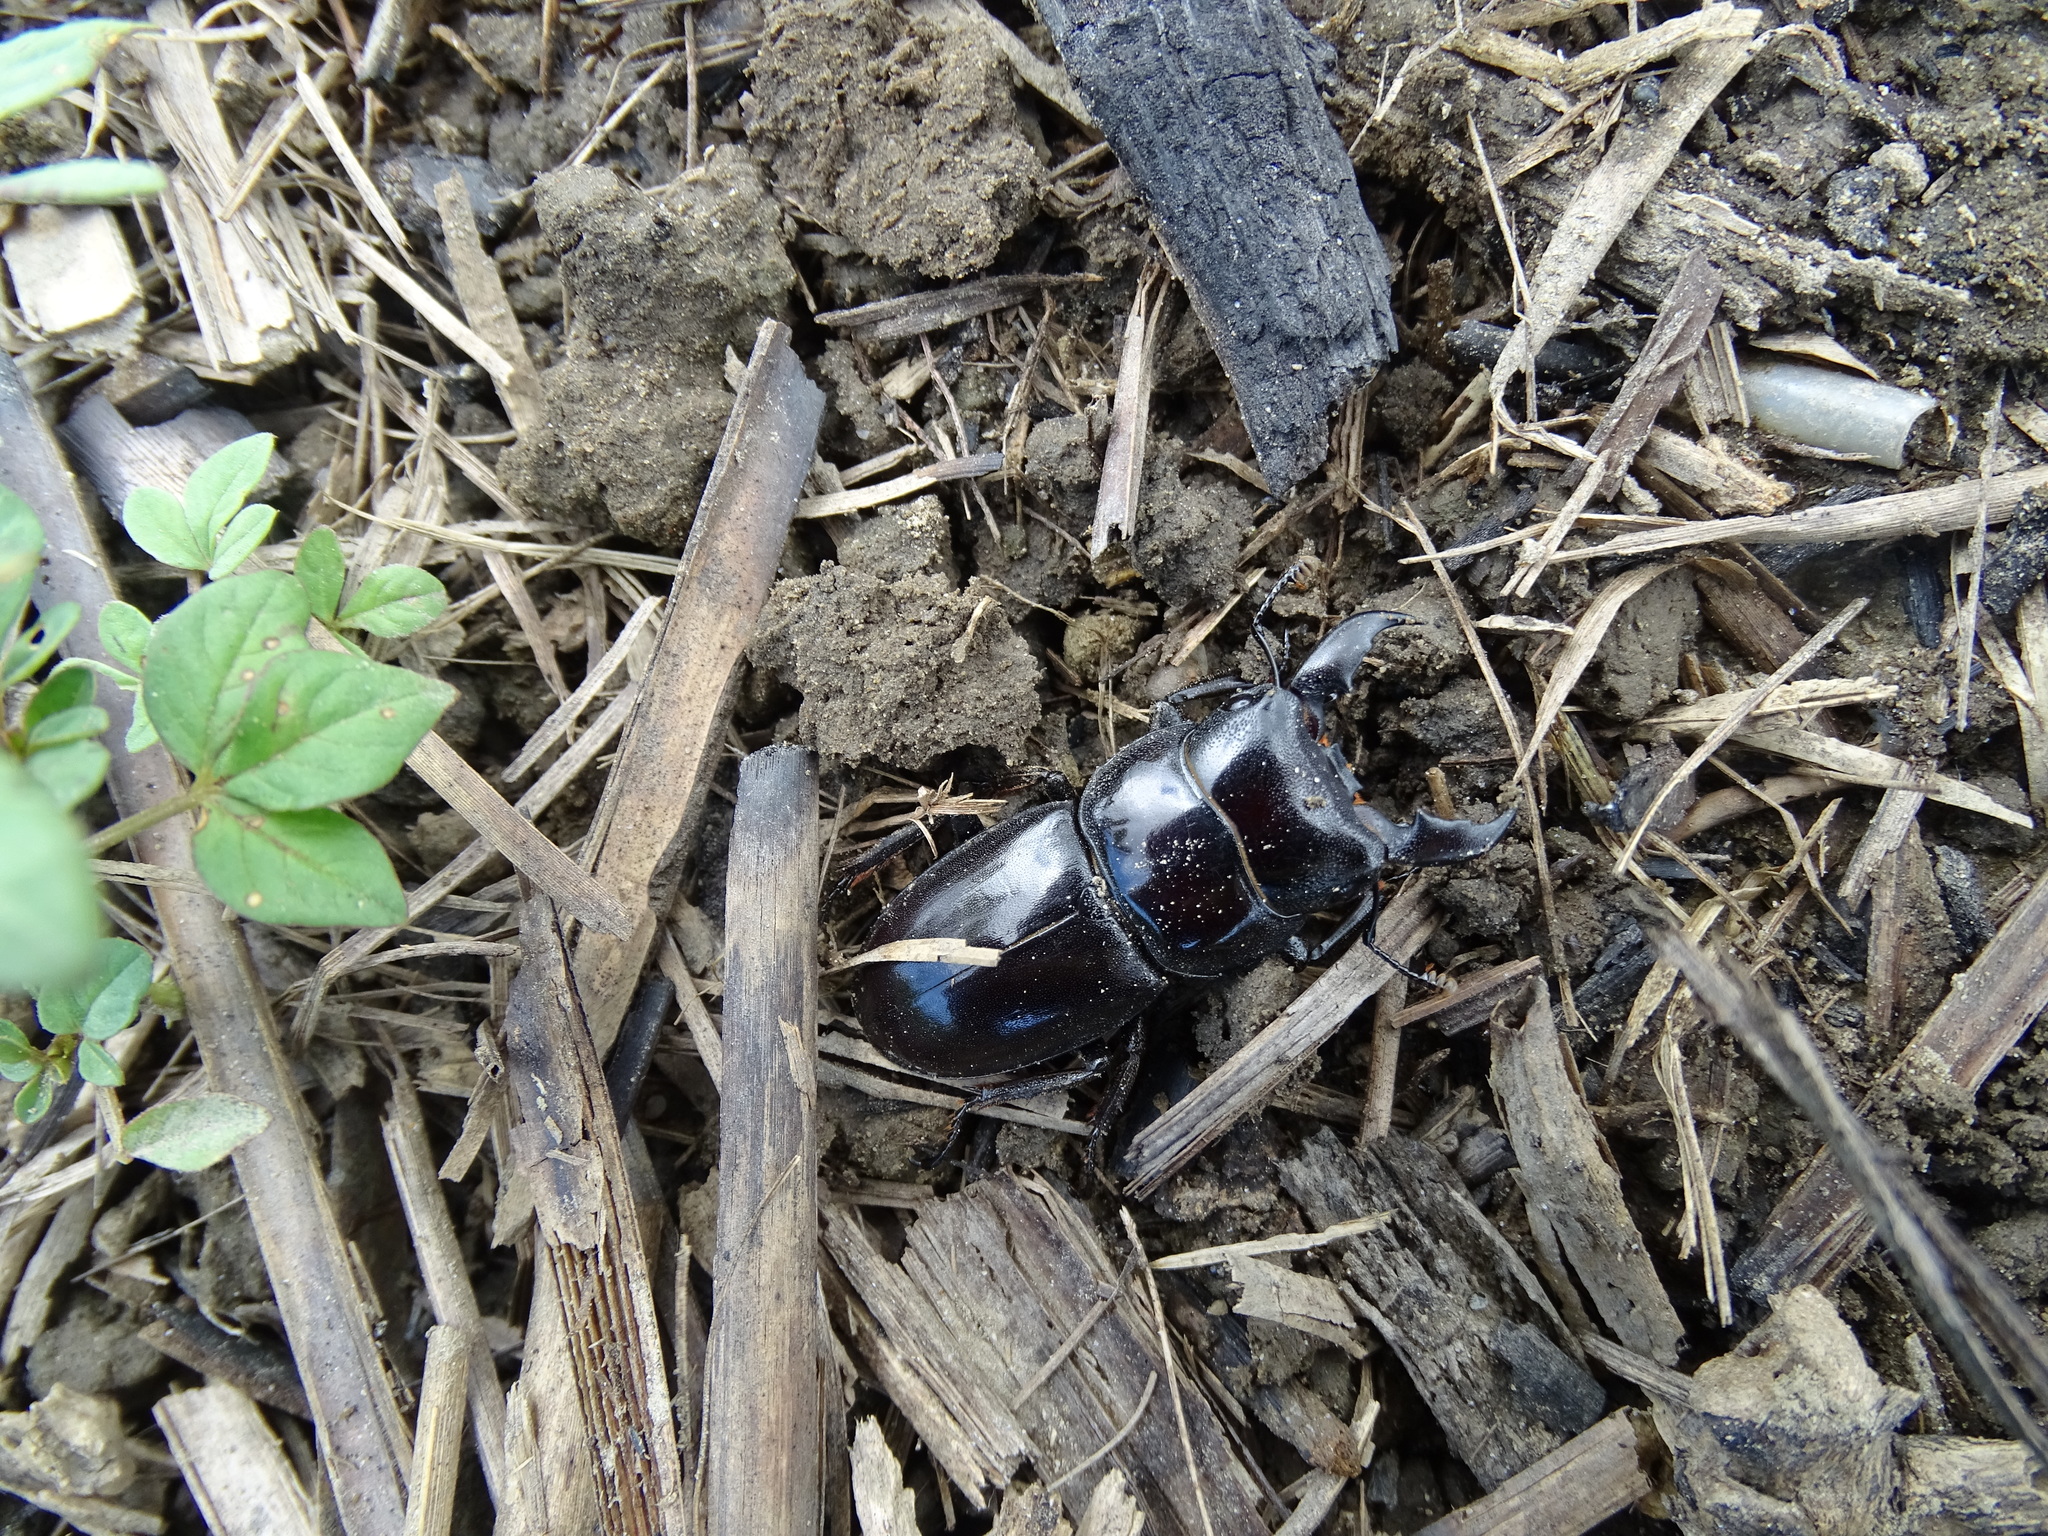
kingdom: Animalia
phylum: Arthropoda
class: Insecta
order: Coleoptera
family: Lucanidae
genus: Serrognathus
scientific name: Serrognathus titanus
